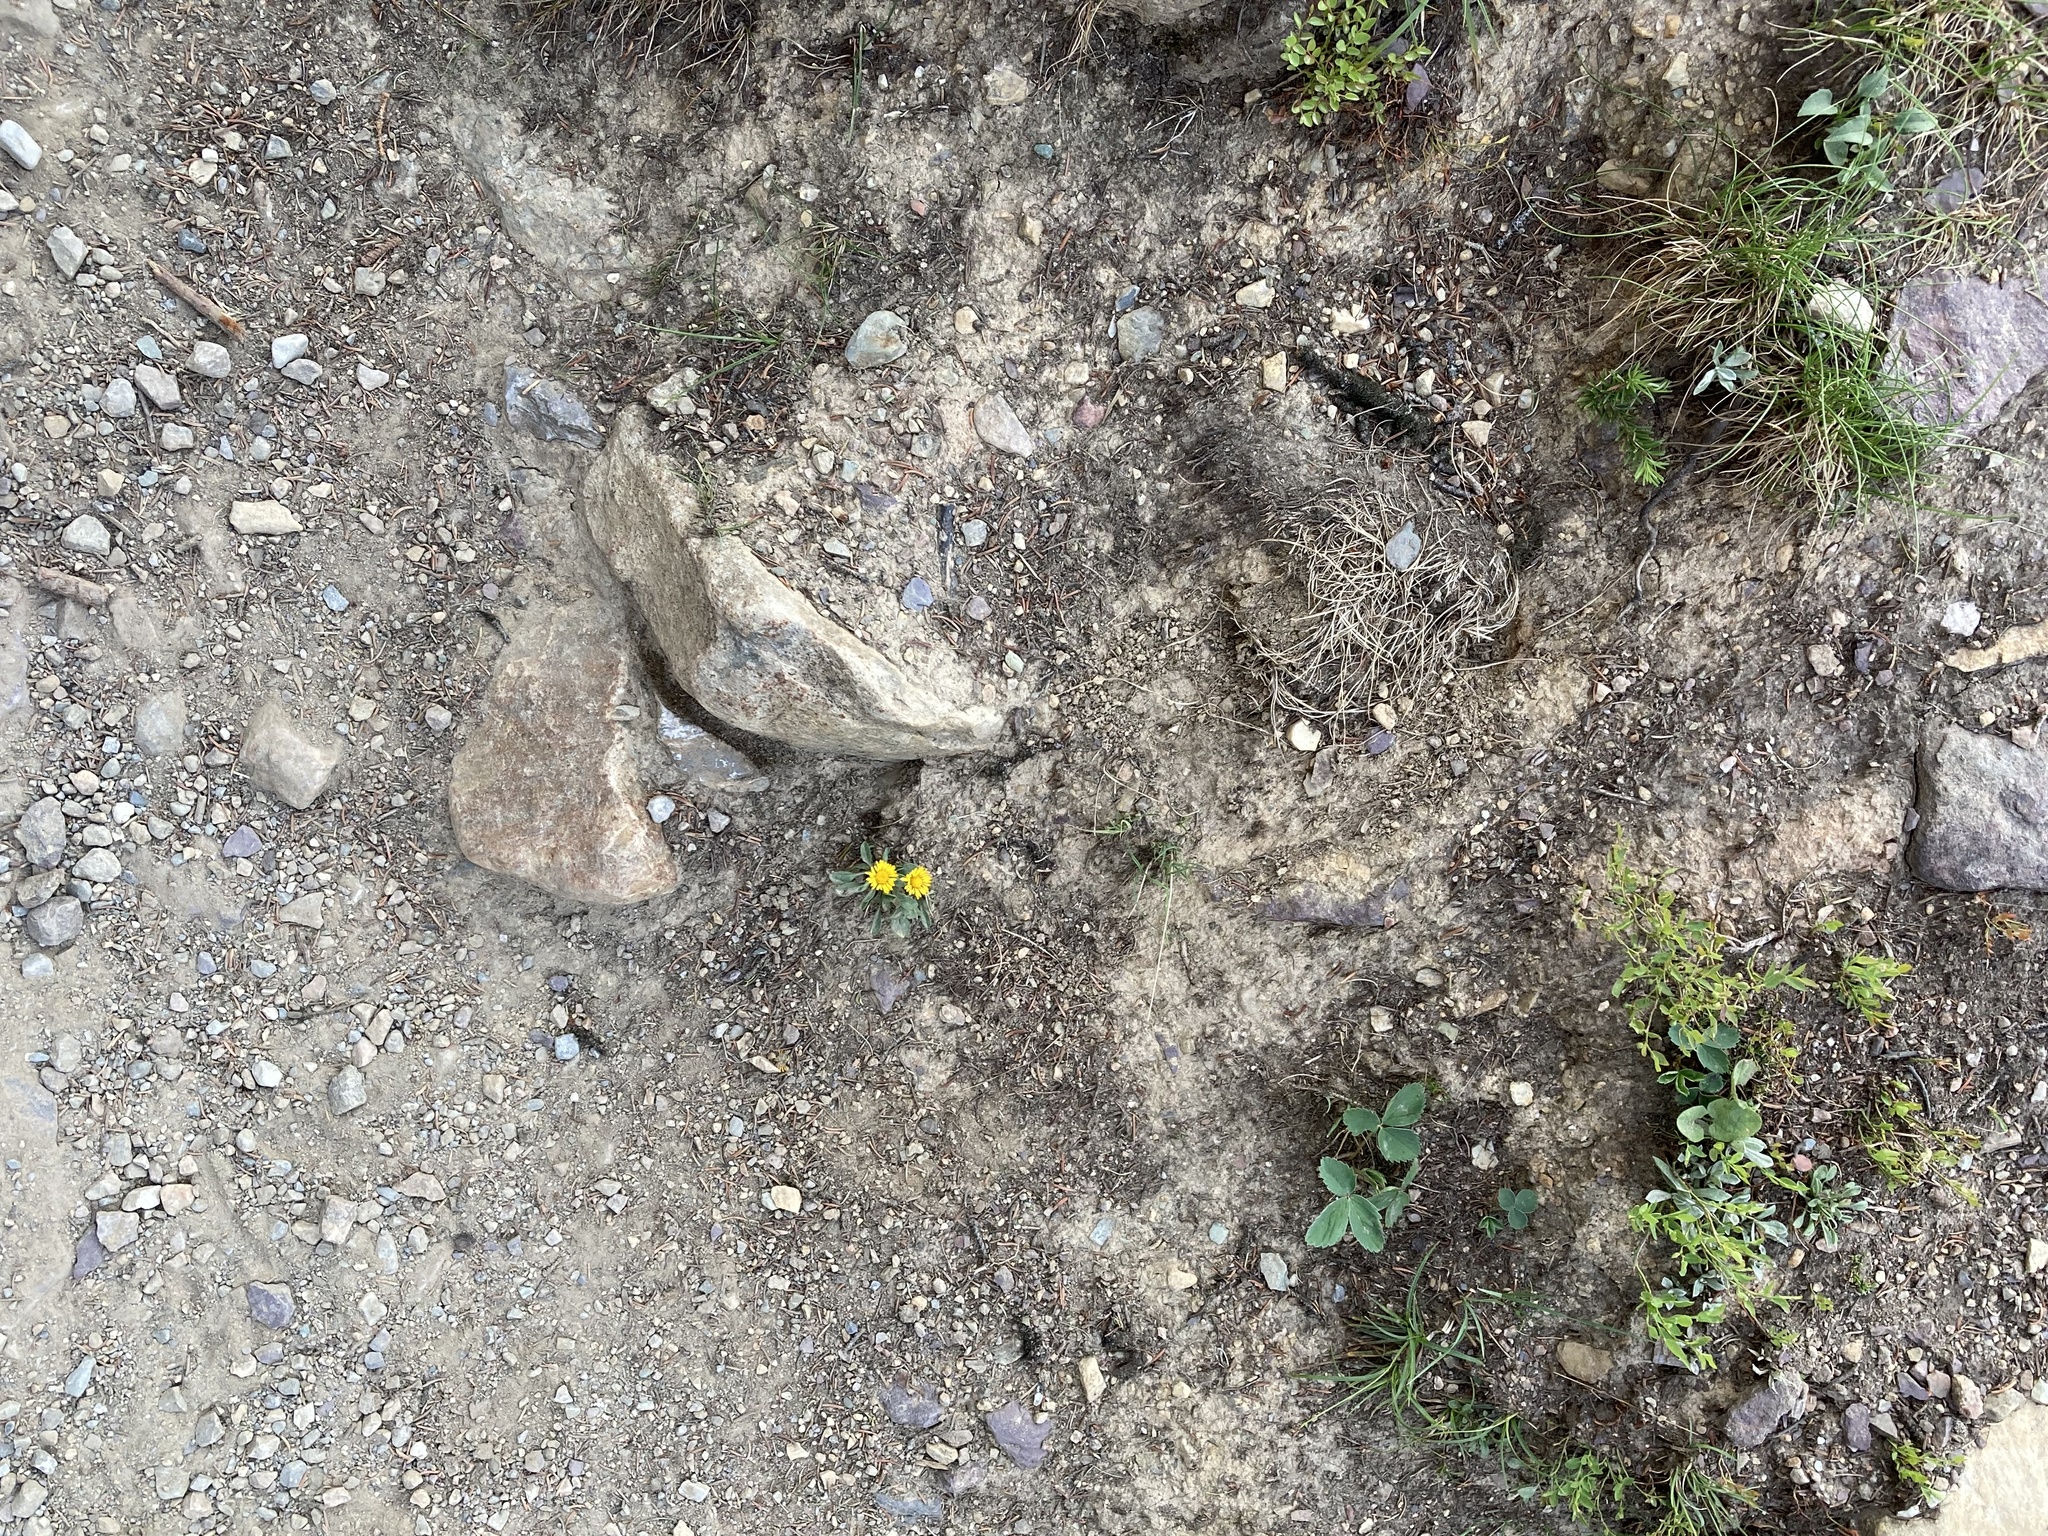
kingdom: Plantae
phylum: Tracheophyta
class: Magnoliopsida
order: Asterales
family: Asteraceae
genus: Erigeron
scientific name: Erigeron aureus
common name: Alpine yellow fleabane
